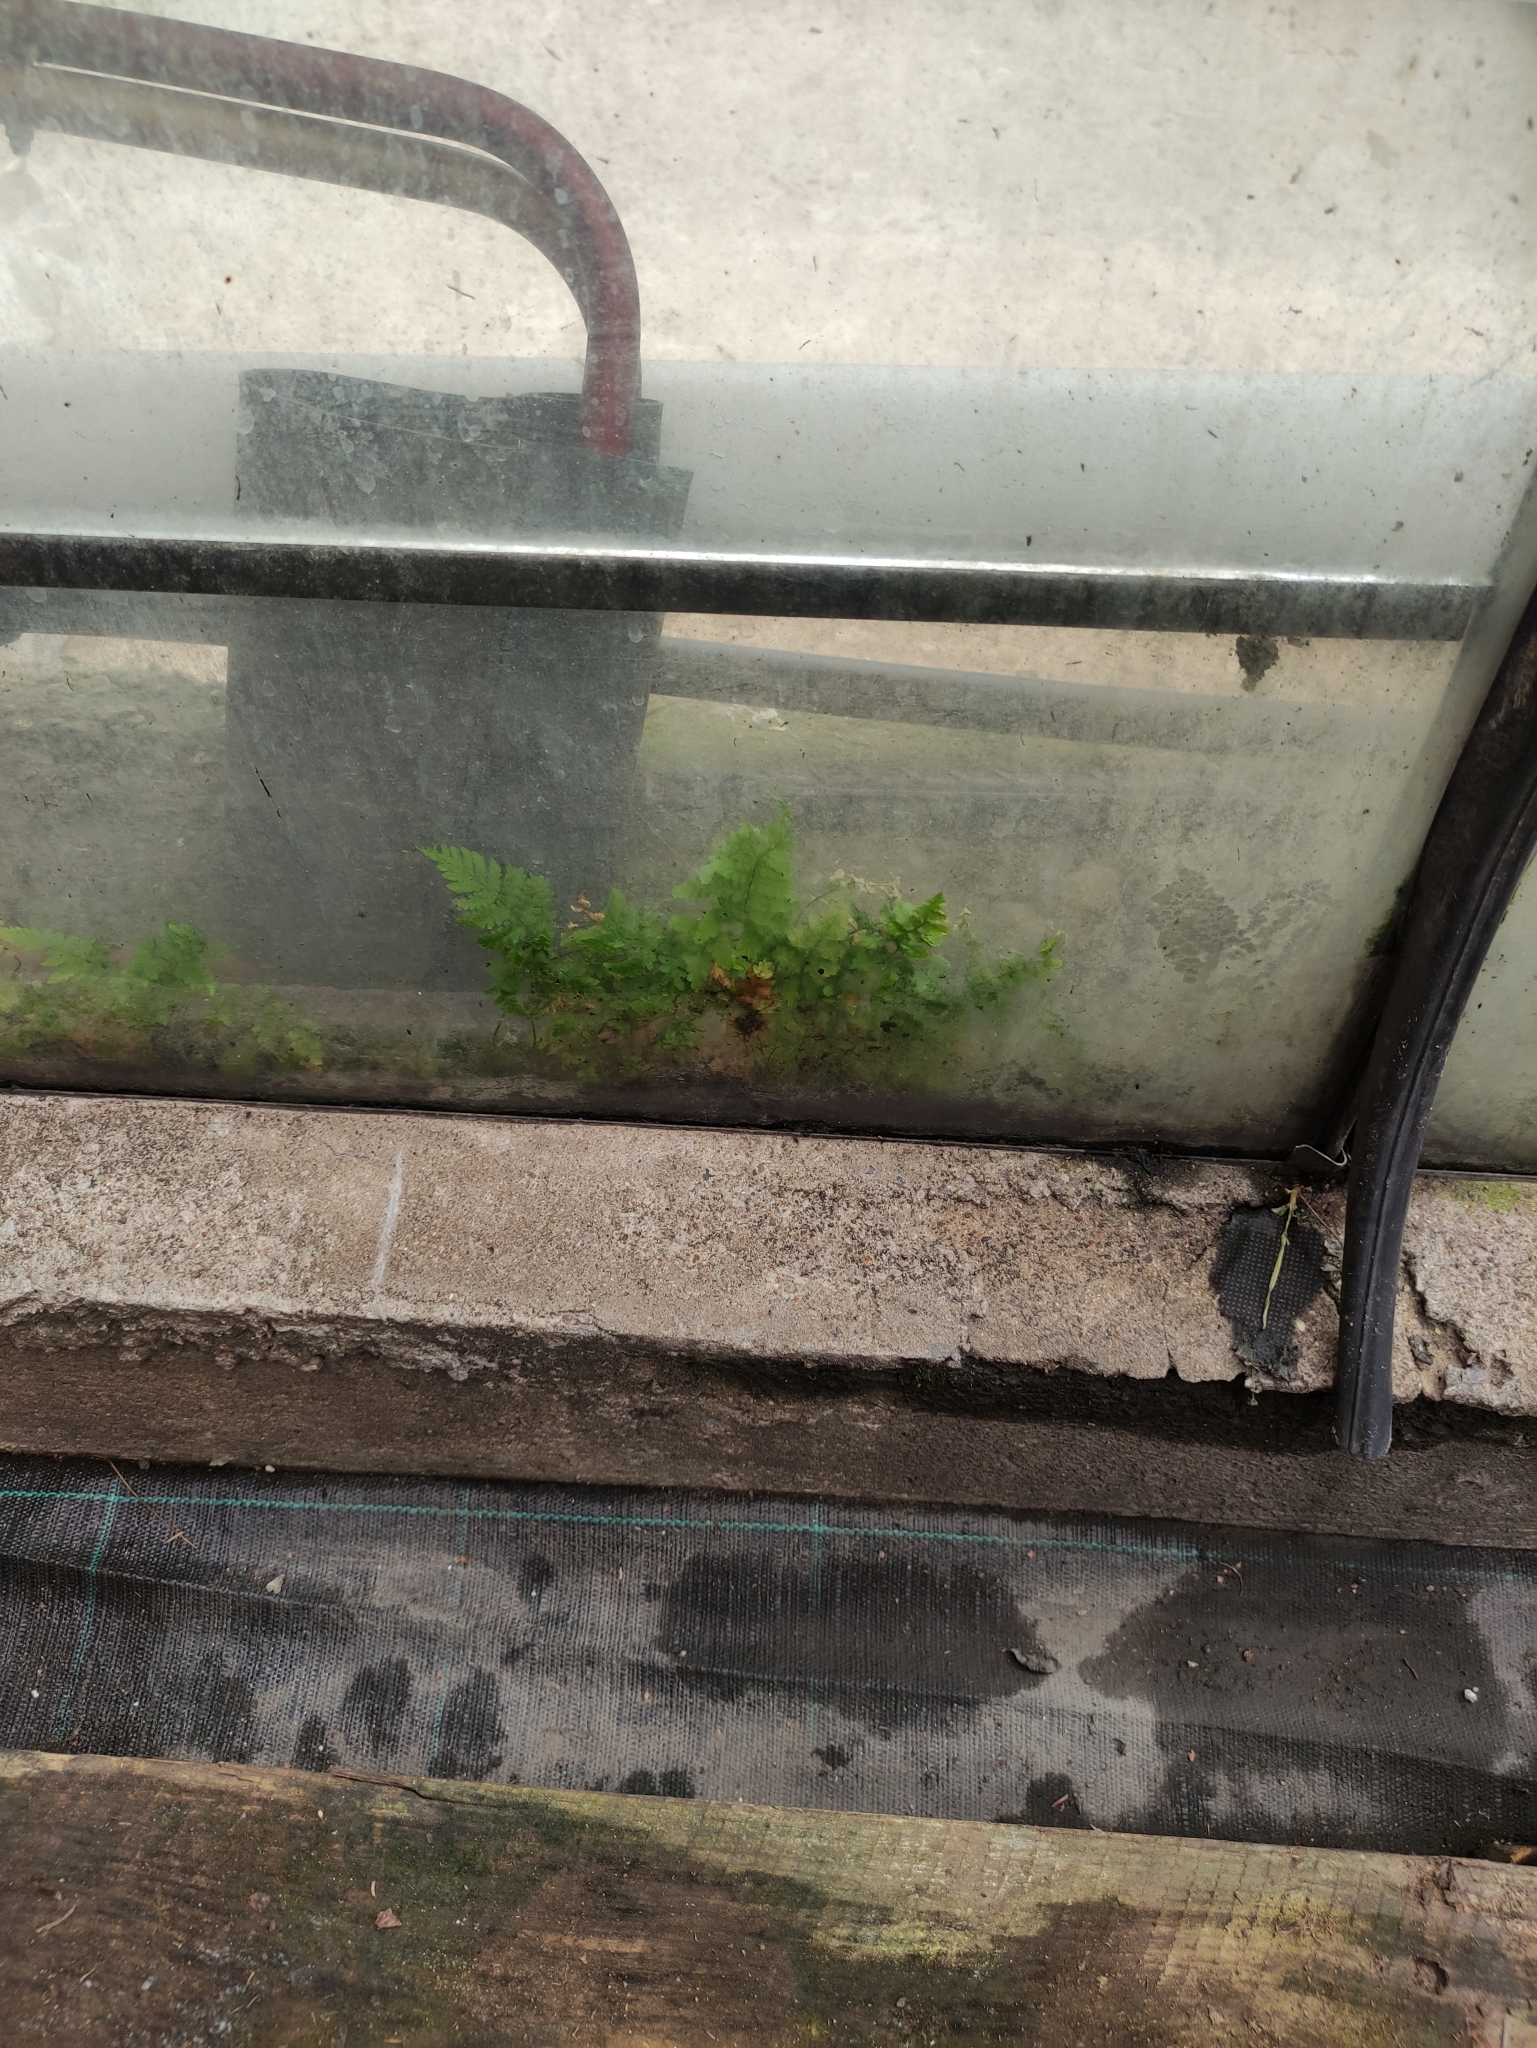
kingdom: Plantae
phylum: Tracheophyta
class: Polypodiopsida
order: Polypodiales
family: Dryopteridaceae
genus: Dryopteris
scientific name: Dryopteris carthusiana
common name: Narrow buckler-fern
